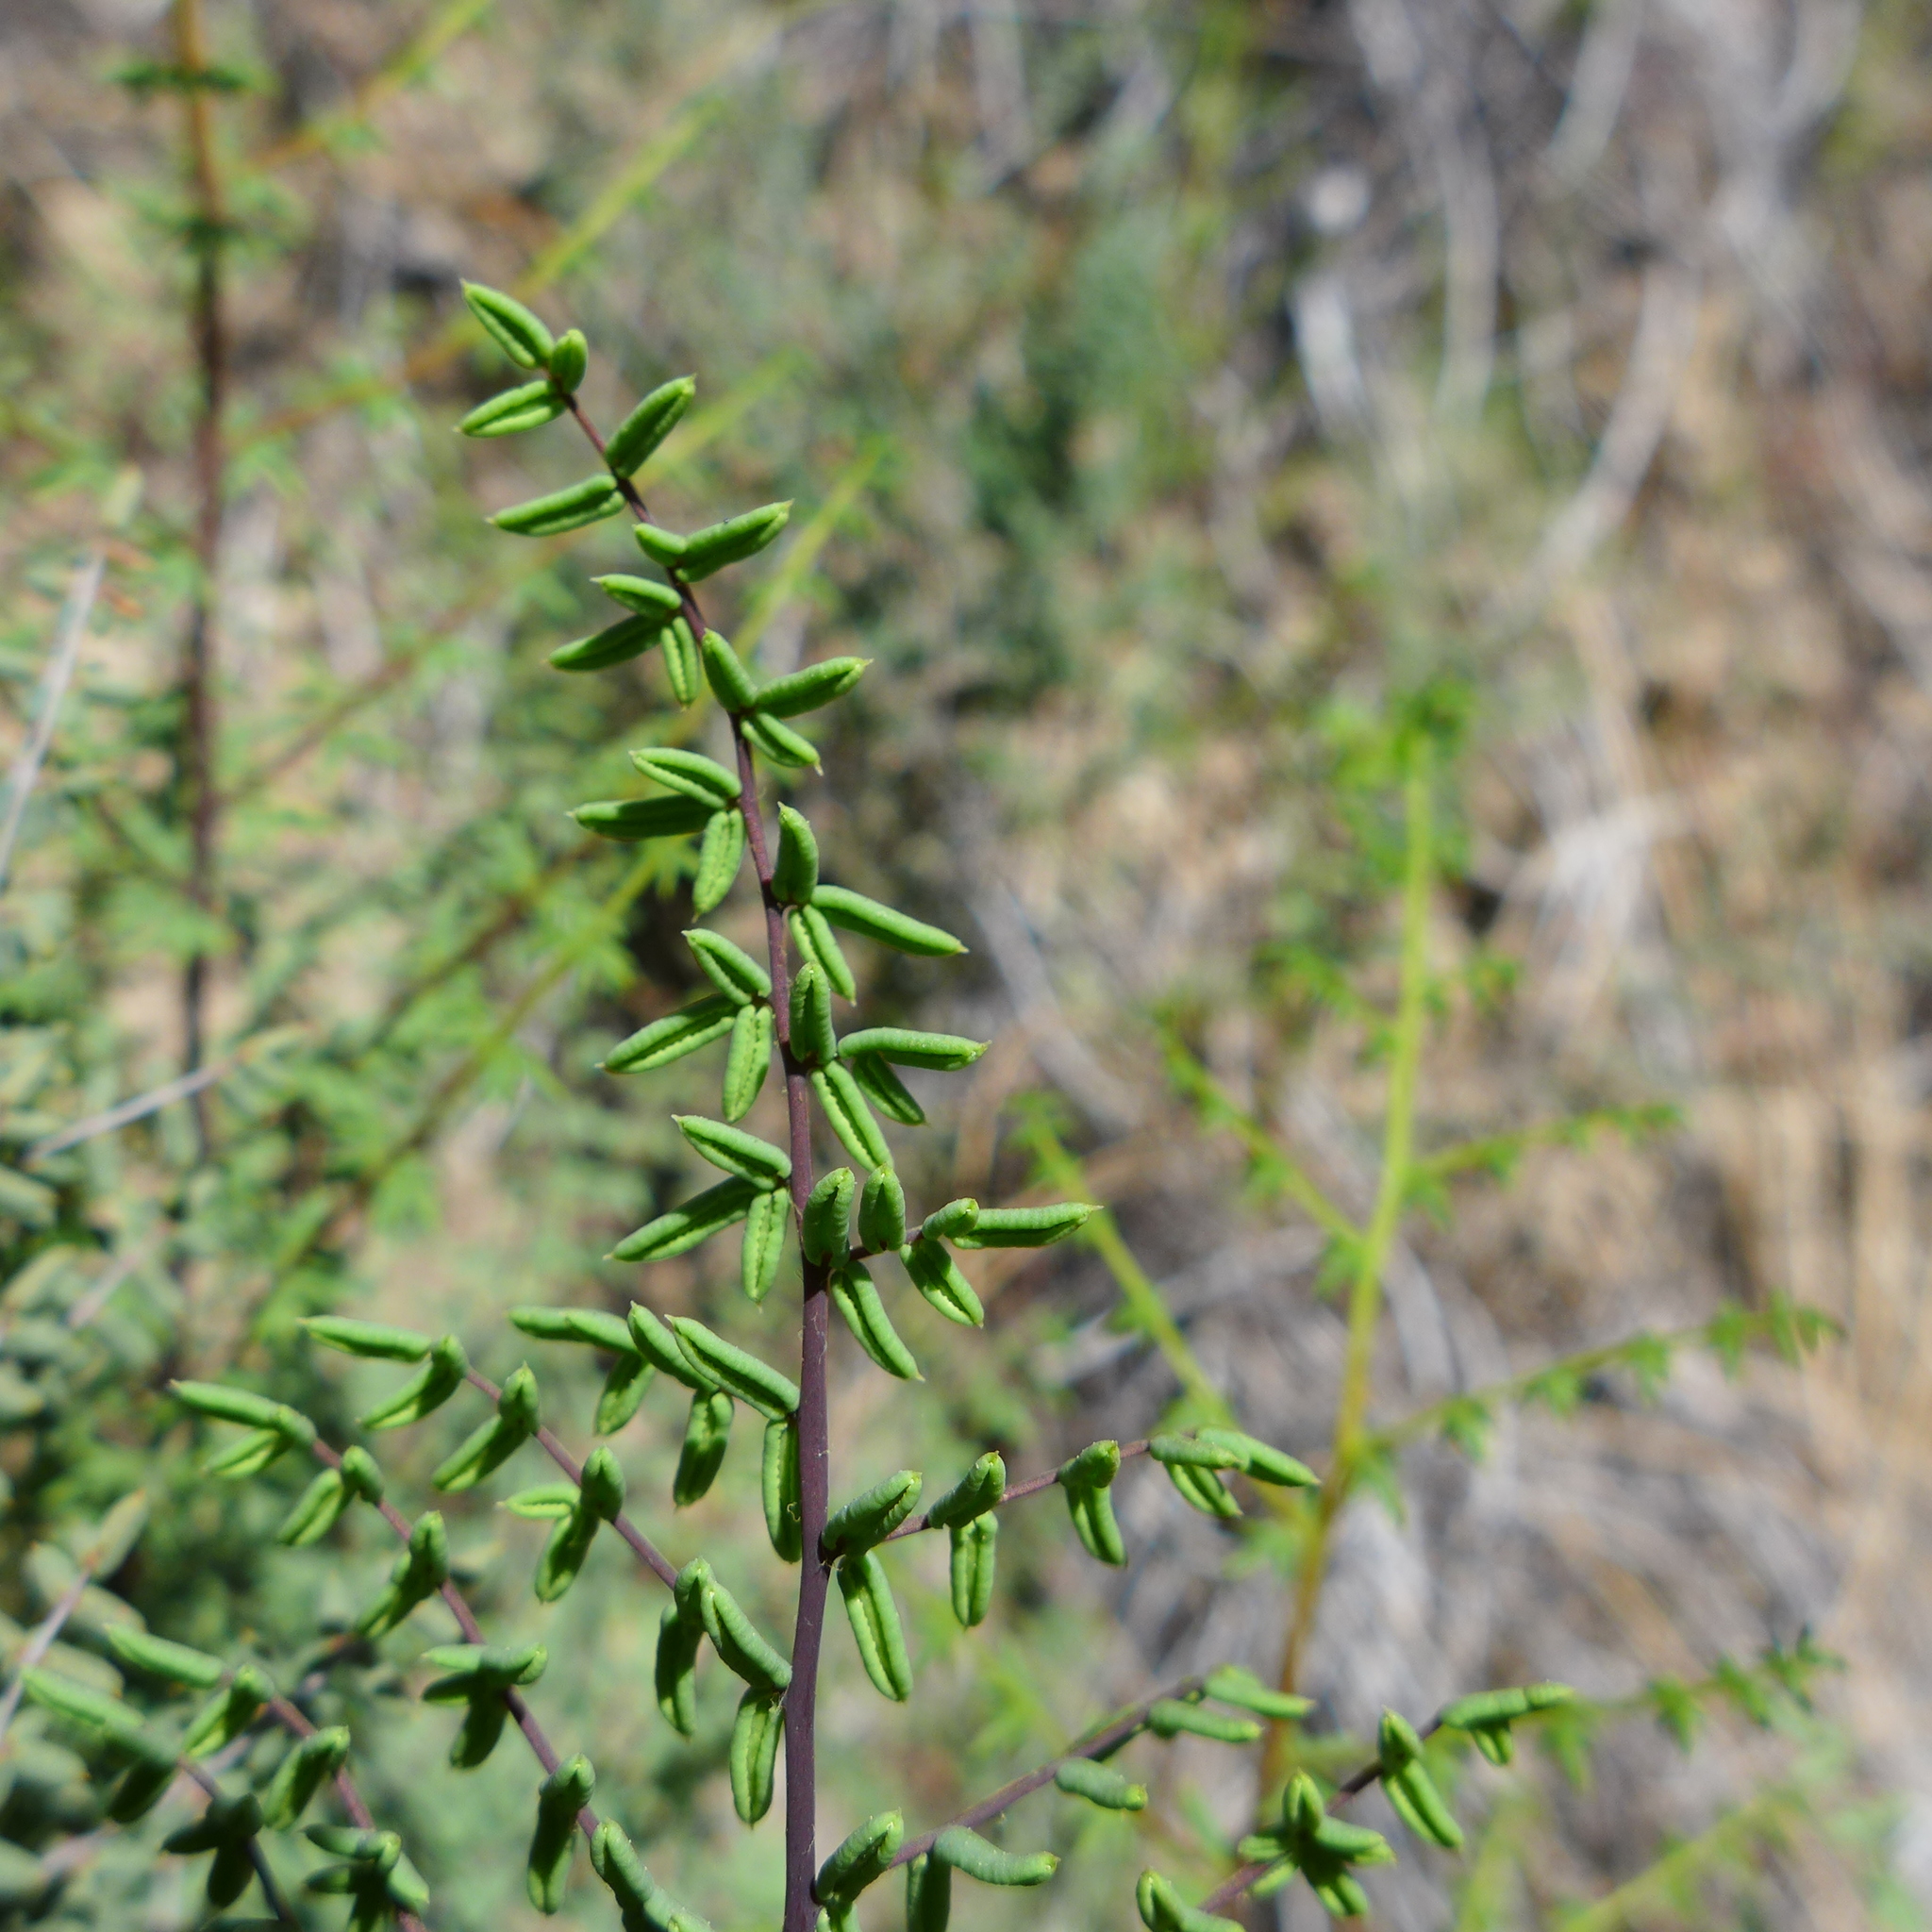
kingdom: Plantae
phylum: Tracheophyta
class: Polypodiopsida
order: Polypodiales
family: Pteridaceae
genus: Pellaea
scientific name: Pellaea mucronata
